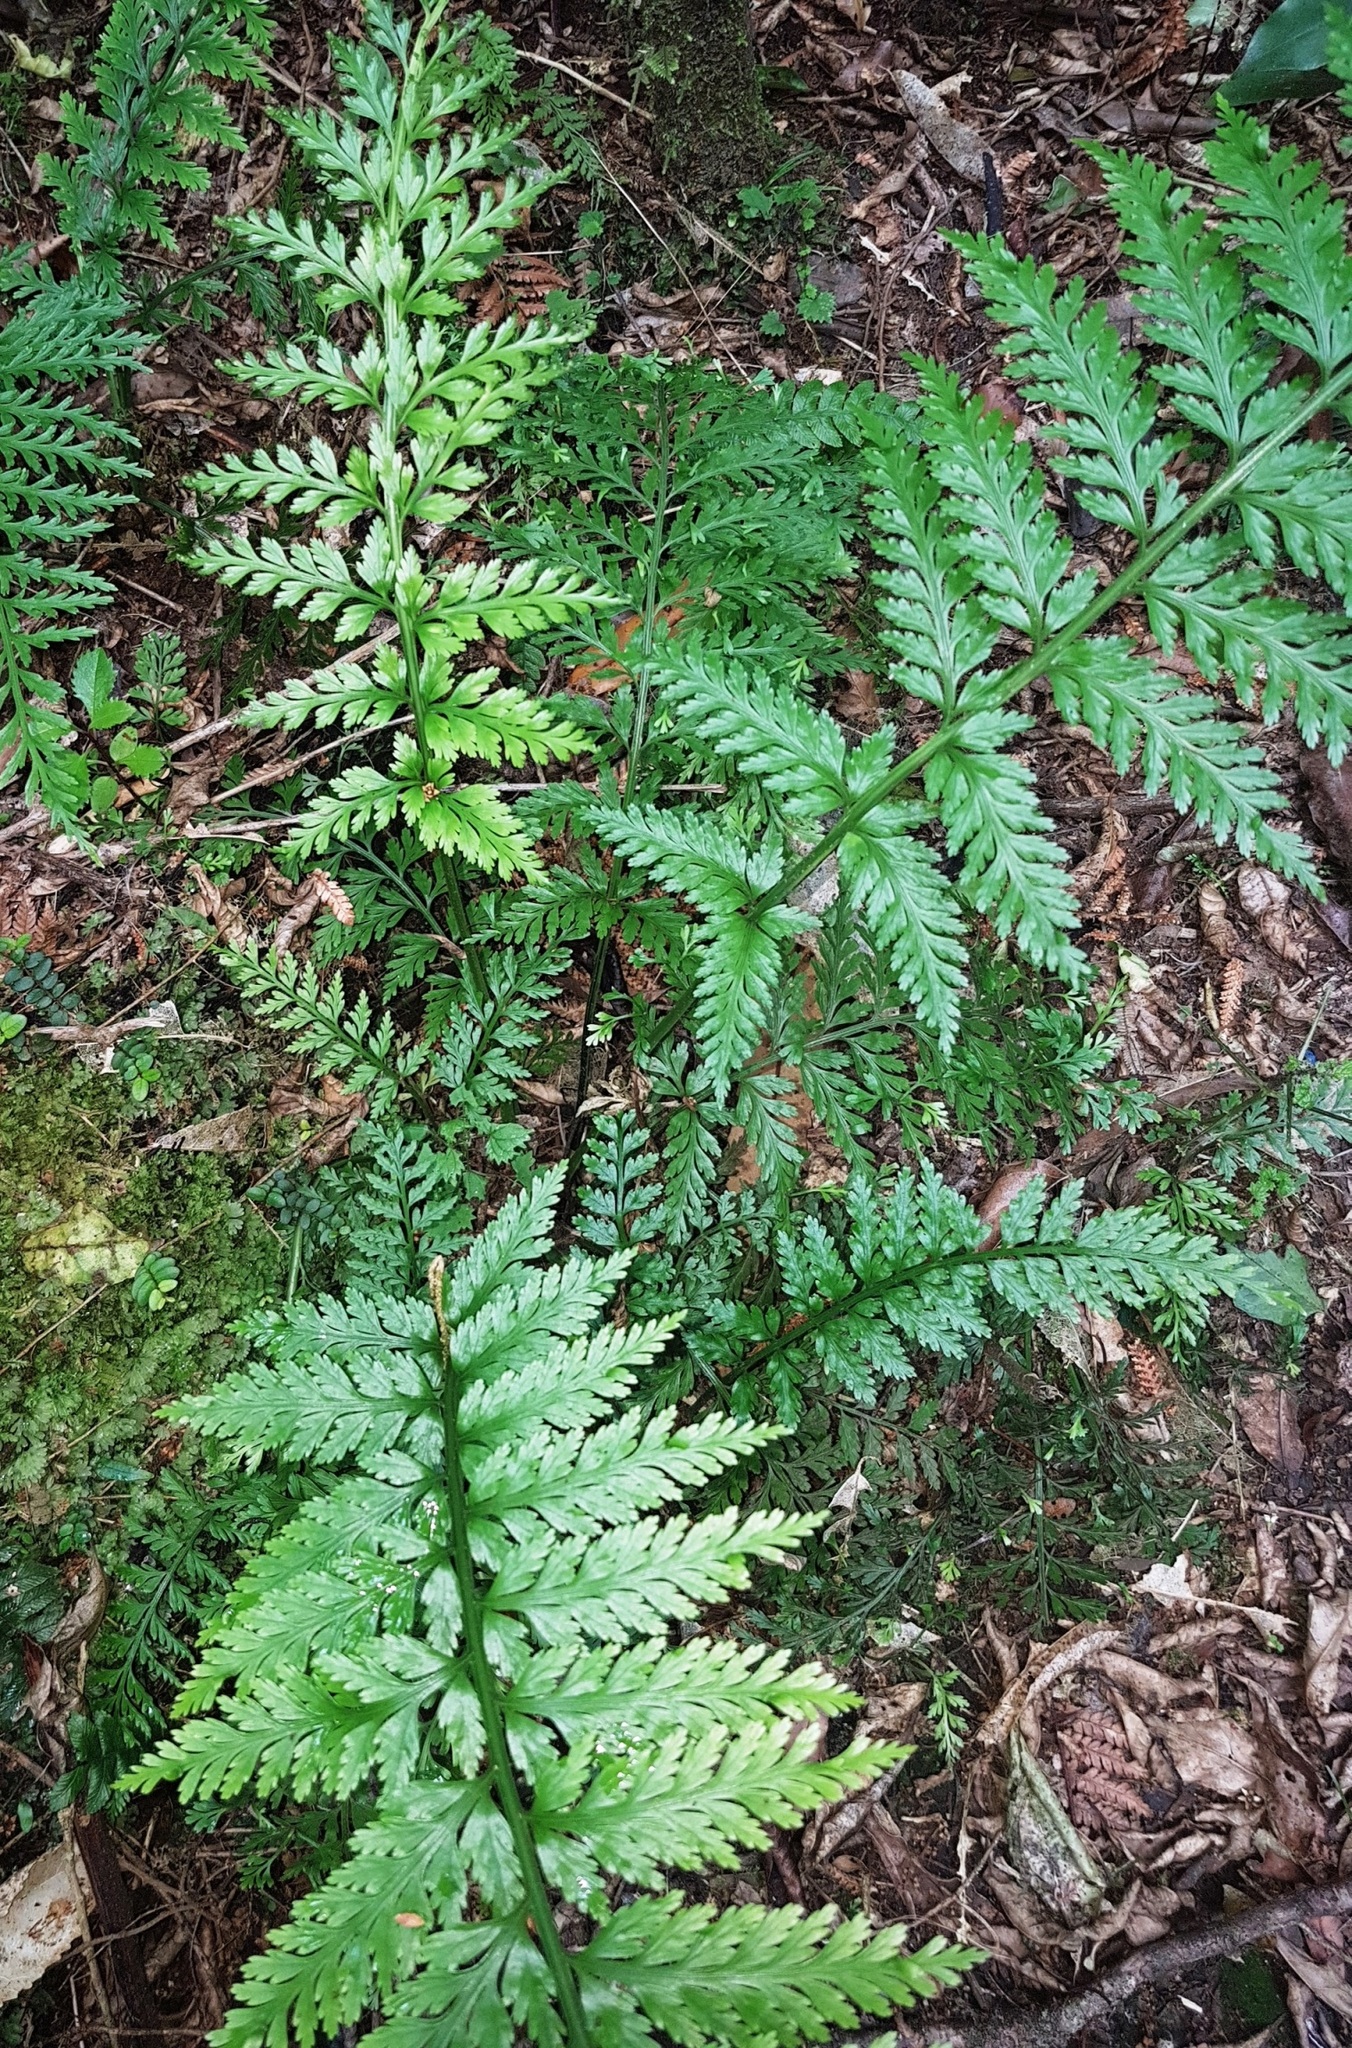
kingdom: Plantae
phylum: Tracheophyta
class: Polypodiopsida
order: Polypodiales
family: Aspleniaceae
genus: Asplenium
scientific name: Asplenium bulbiferum
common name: Mother fern
